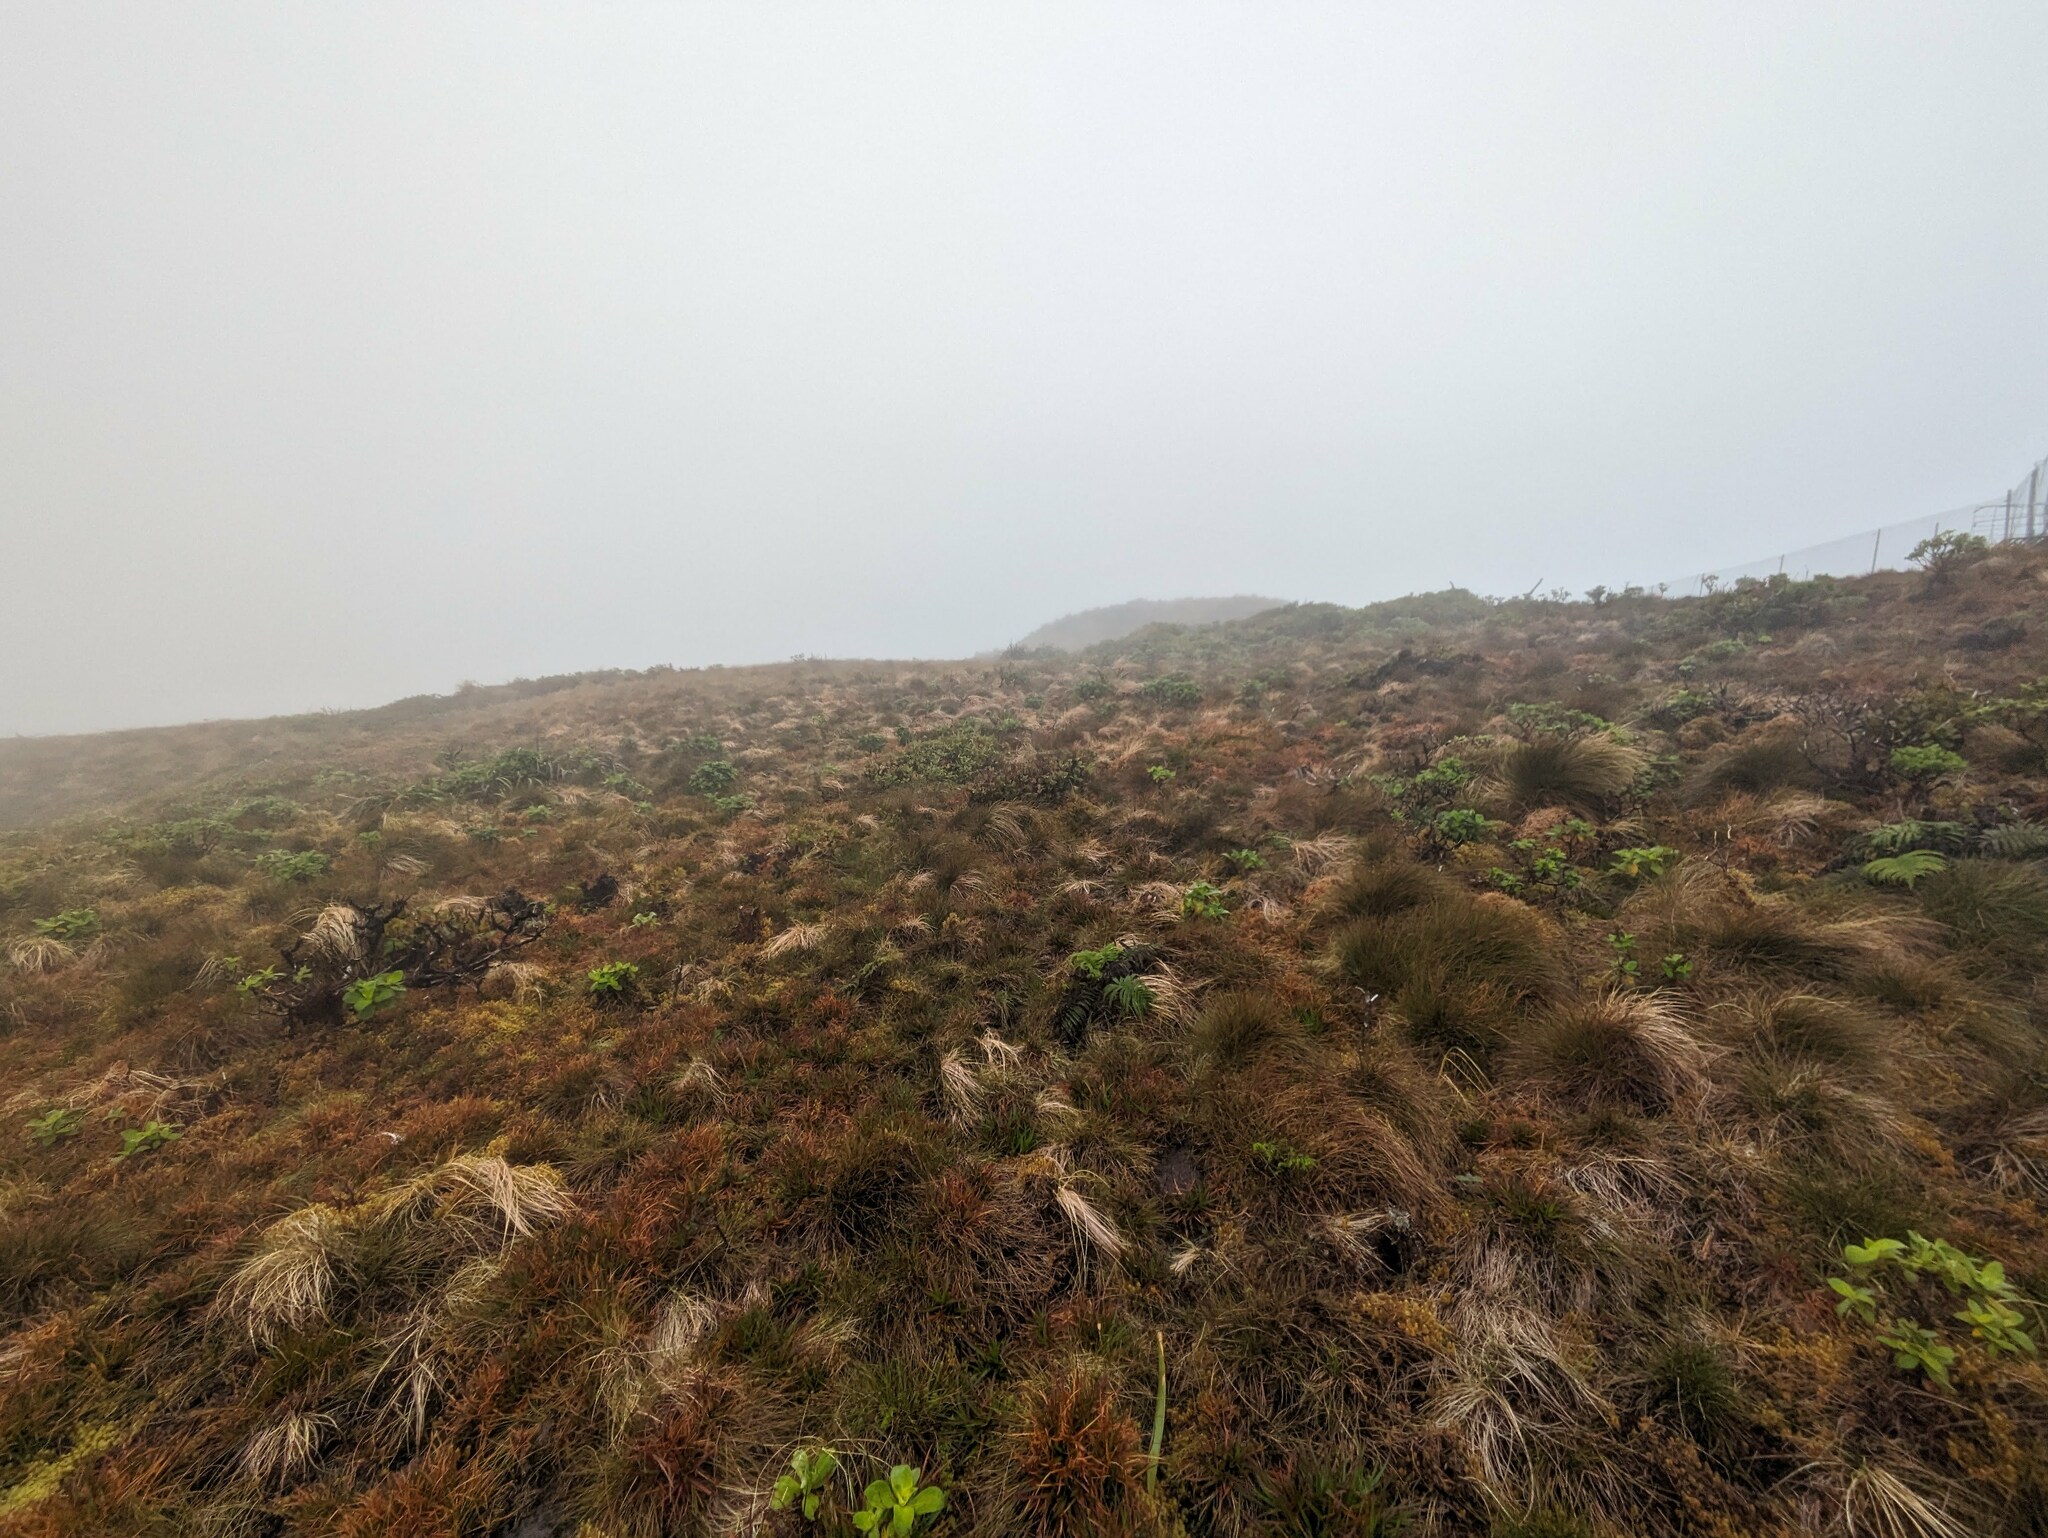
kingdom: Plantae
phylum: Tracheophyta
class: Liliopsida
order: Poales
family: Poaceae
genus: Deschampsia
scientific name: Deschampsia nubigena
